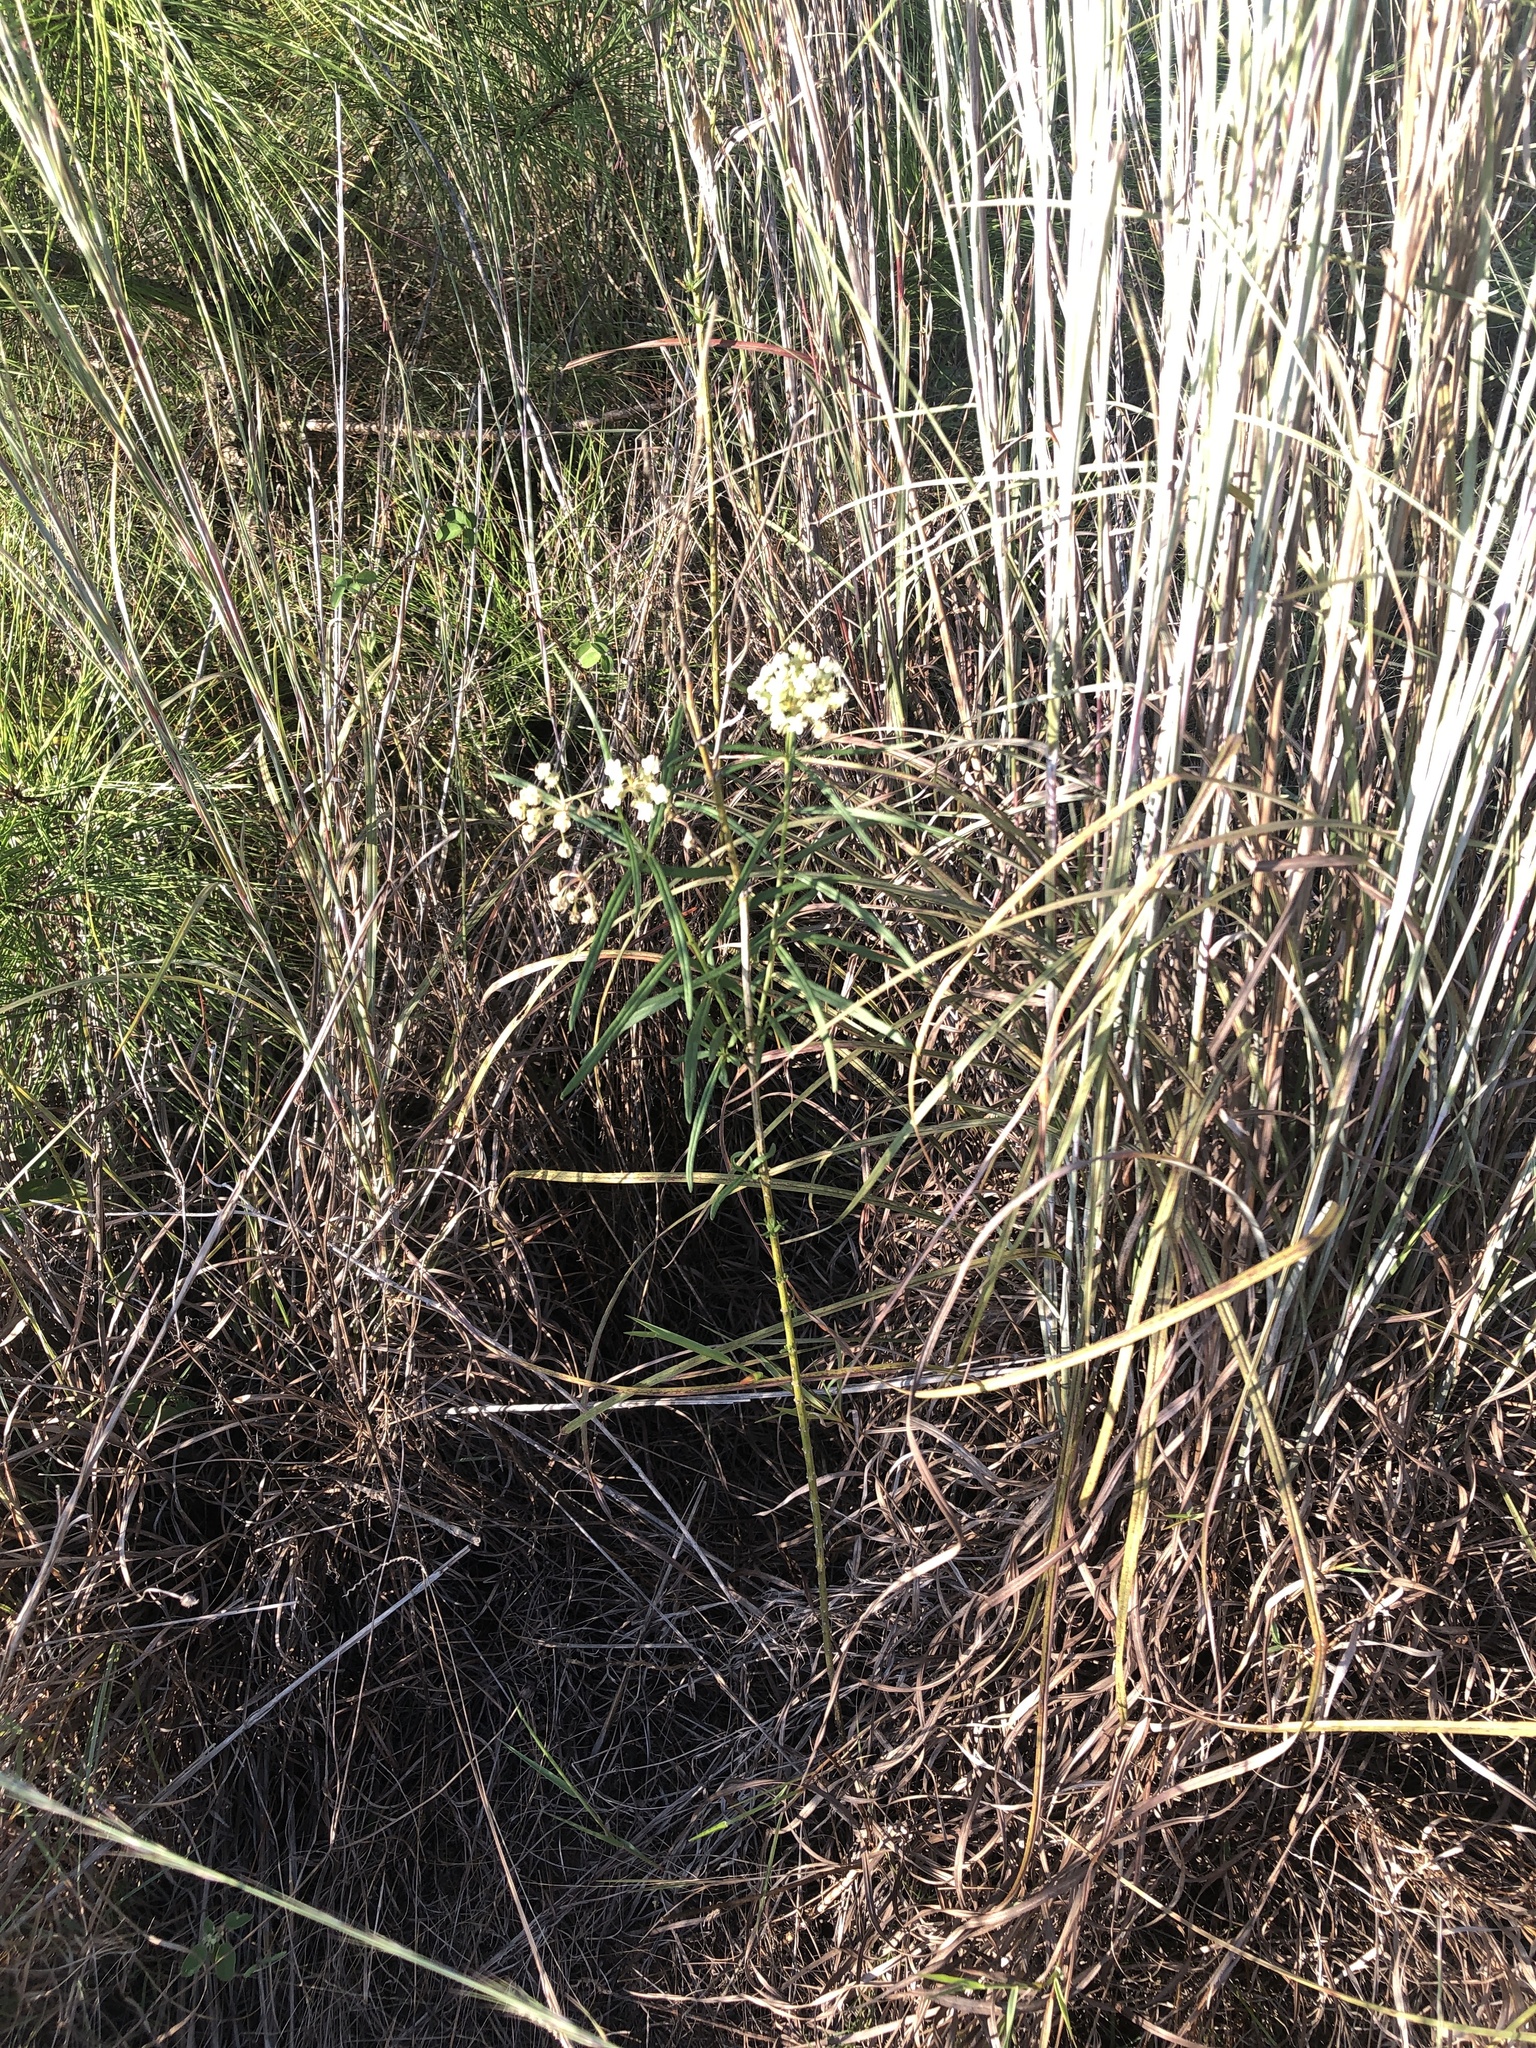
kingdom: Plantae
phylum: Tracheophyta
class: Magnoliopsida
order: Gentianales
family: Apocynaceae
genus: Asclepias
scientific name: Asclepias verticillata
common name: Eastern whorled milkweed
